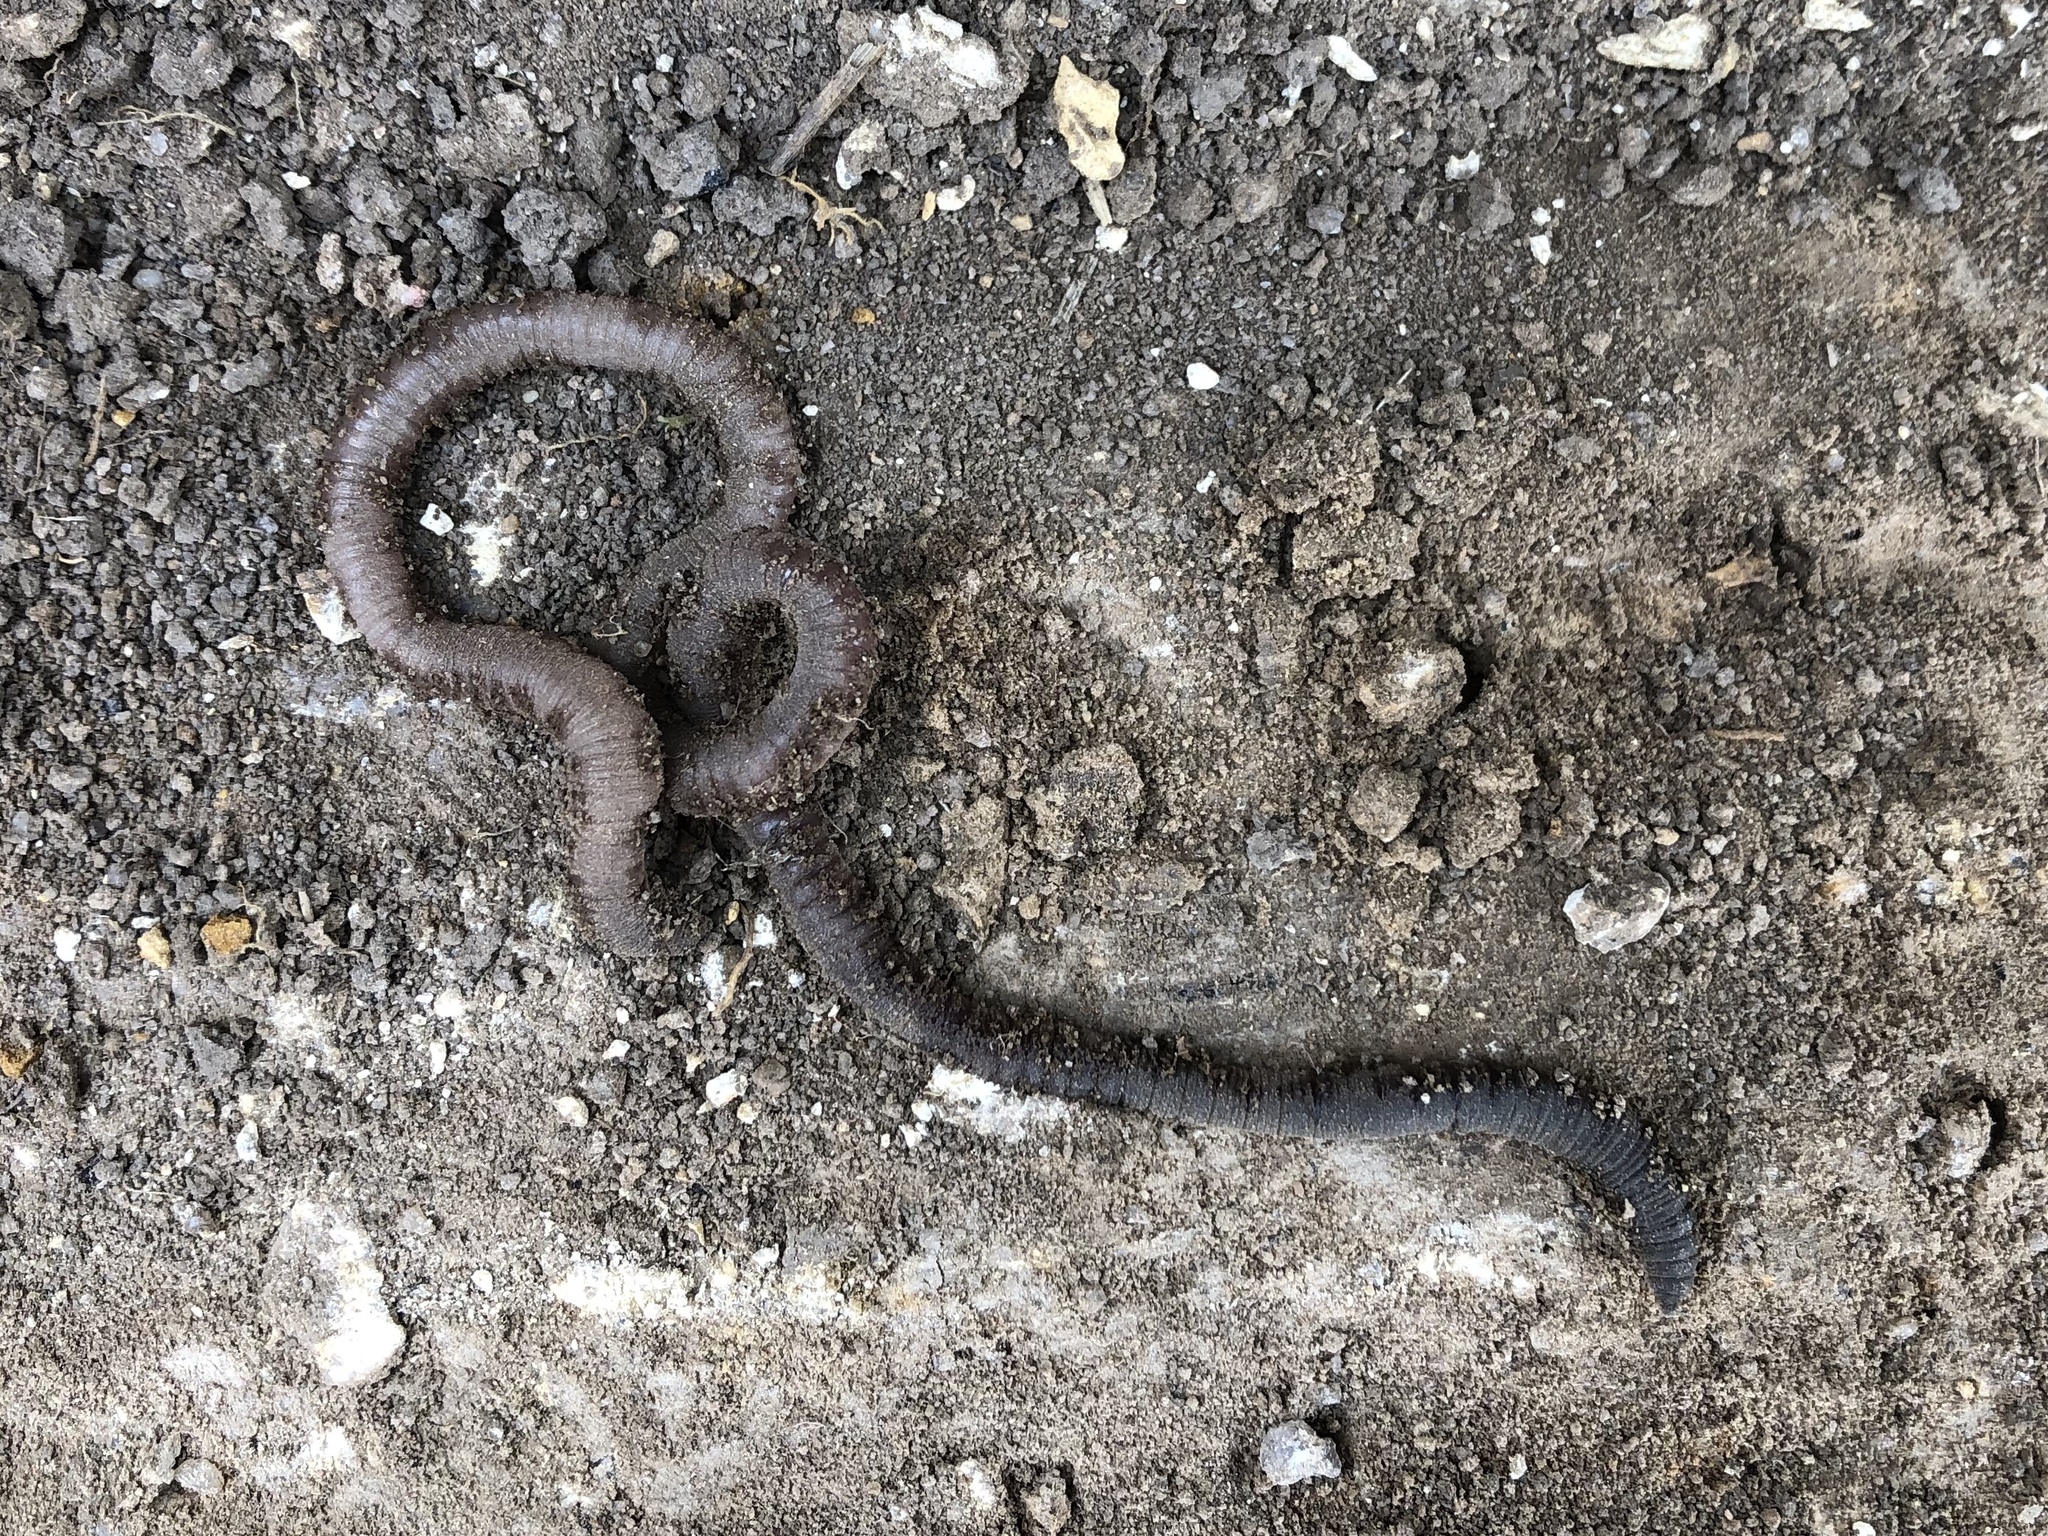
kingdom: Animalia
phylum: Annelida
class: Clitellata
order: Crassiclitellata
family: Lumbricidae
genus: Lumbricus
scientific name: Lumbricus terrestris
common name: Common earthworm
